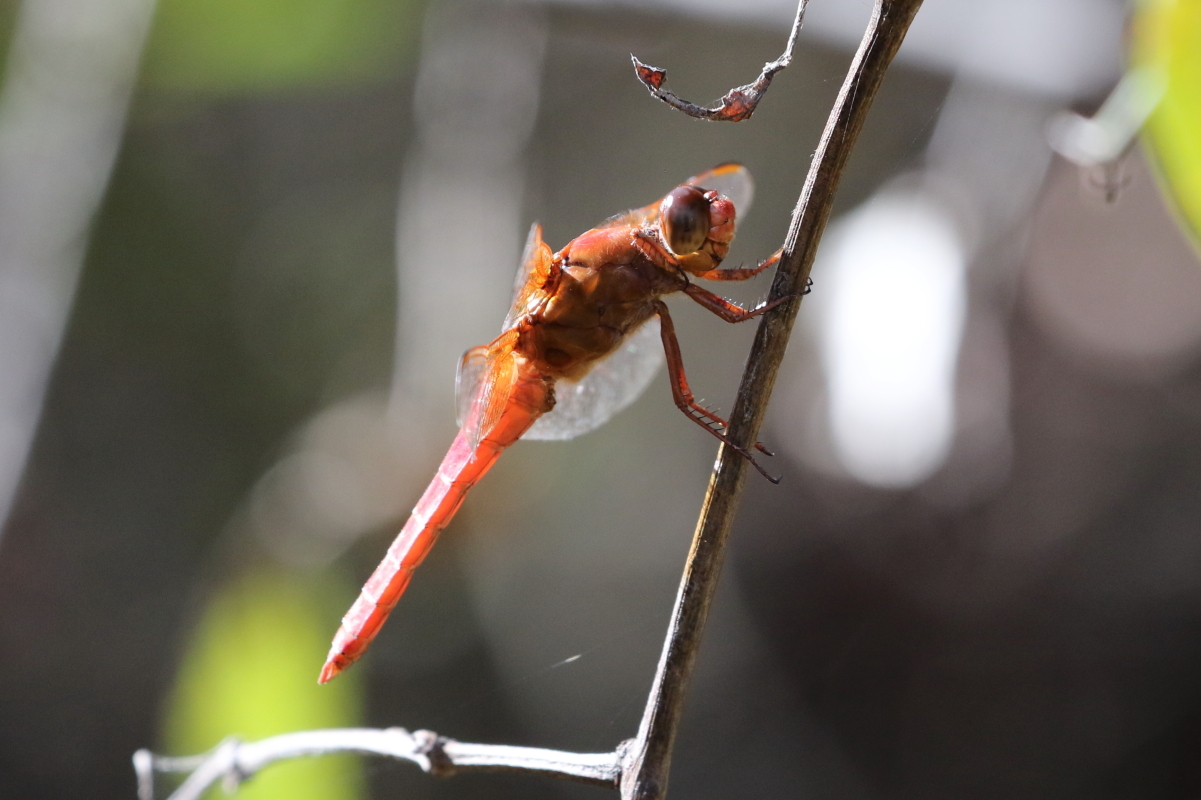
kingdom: Animalia
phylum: Arthropoda
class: Insecta
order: Odonata
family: Libellulidae
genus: Libellula
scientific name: Libellula croceipennis
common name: Neon skimmer
